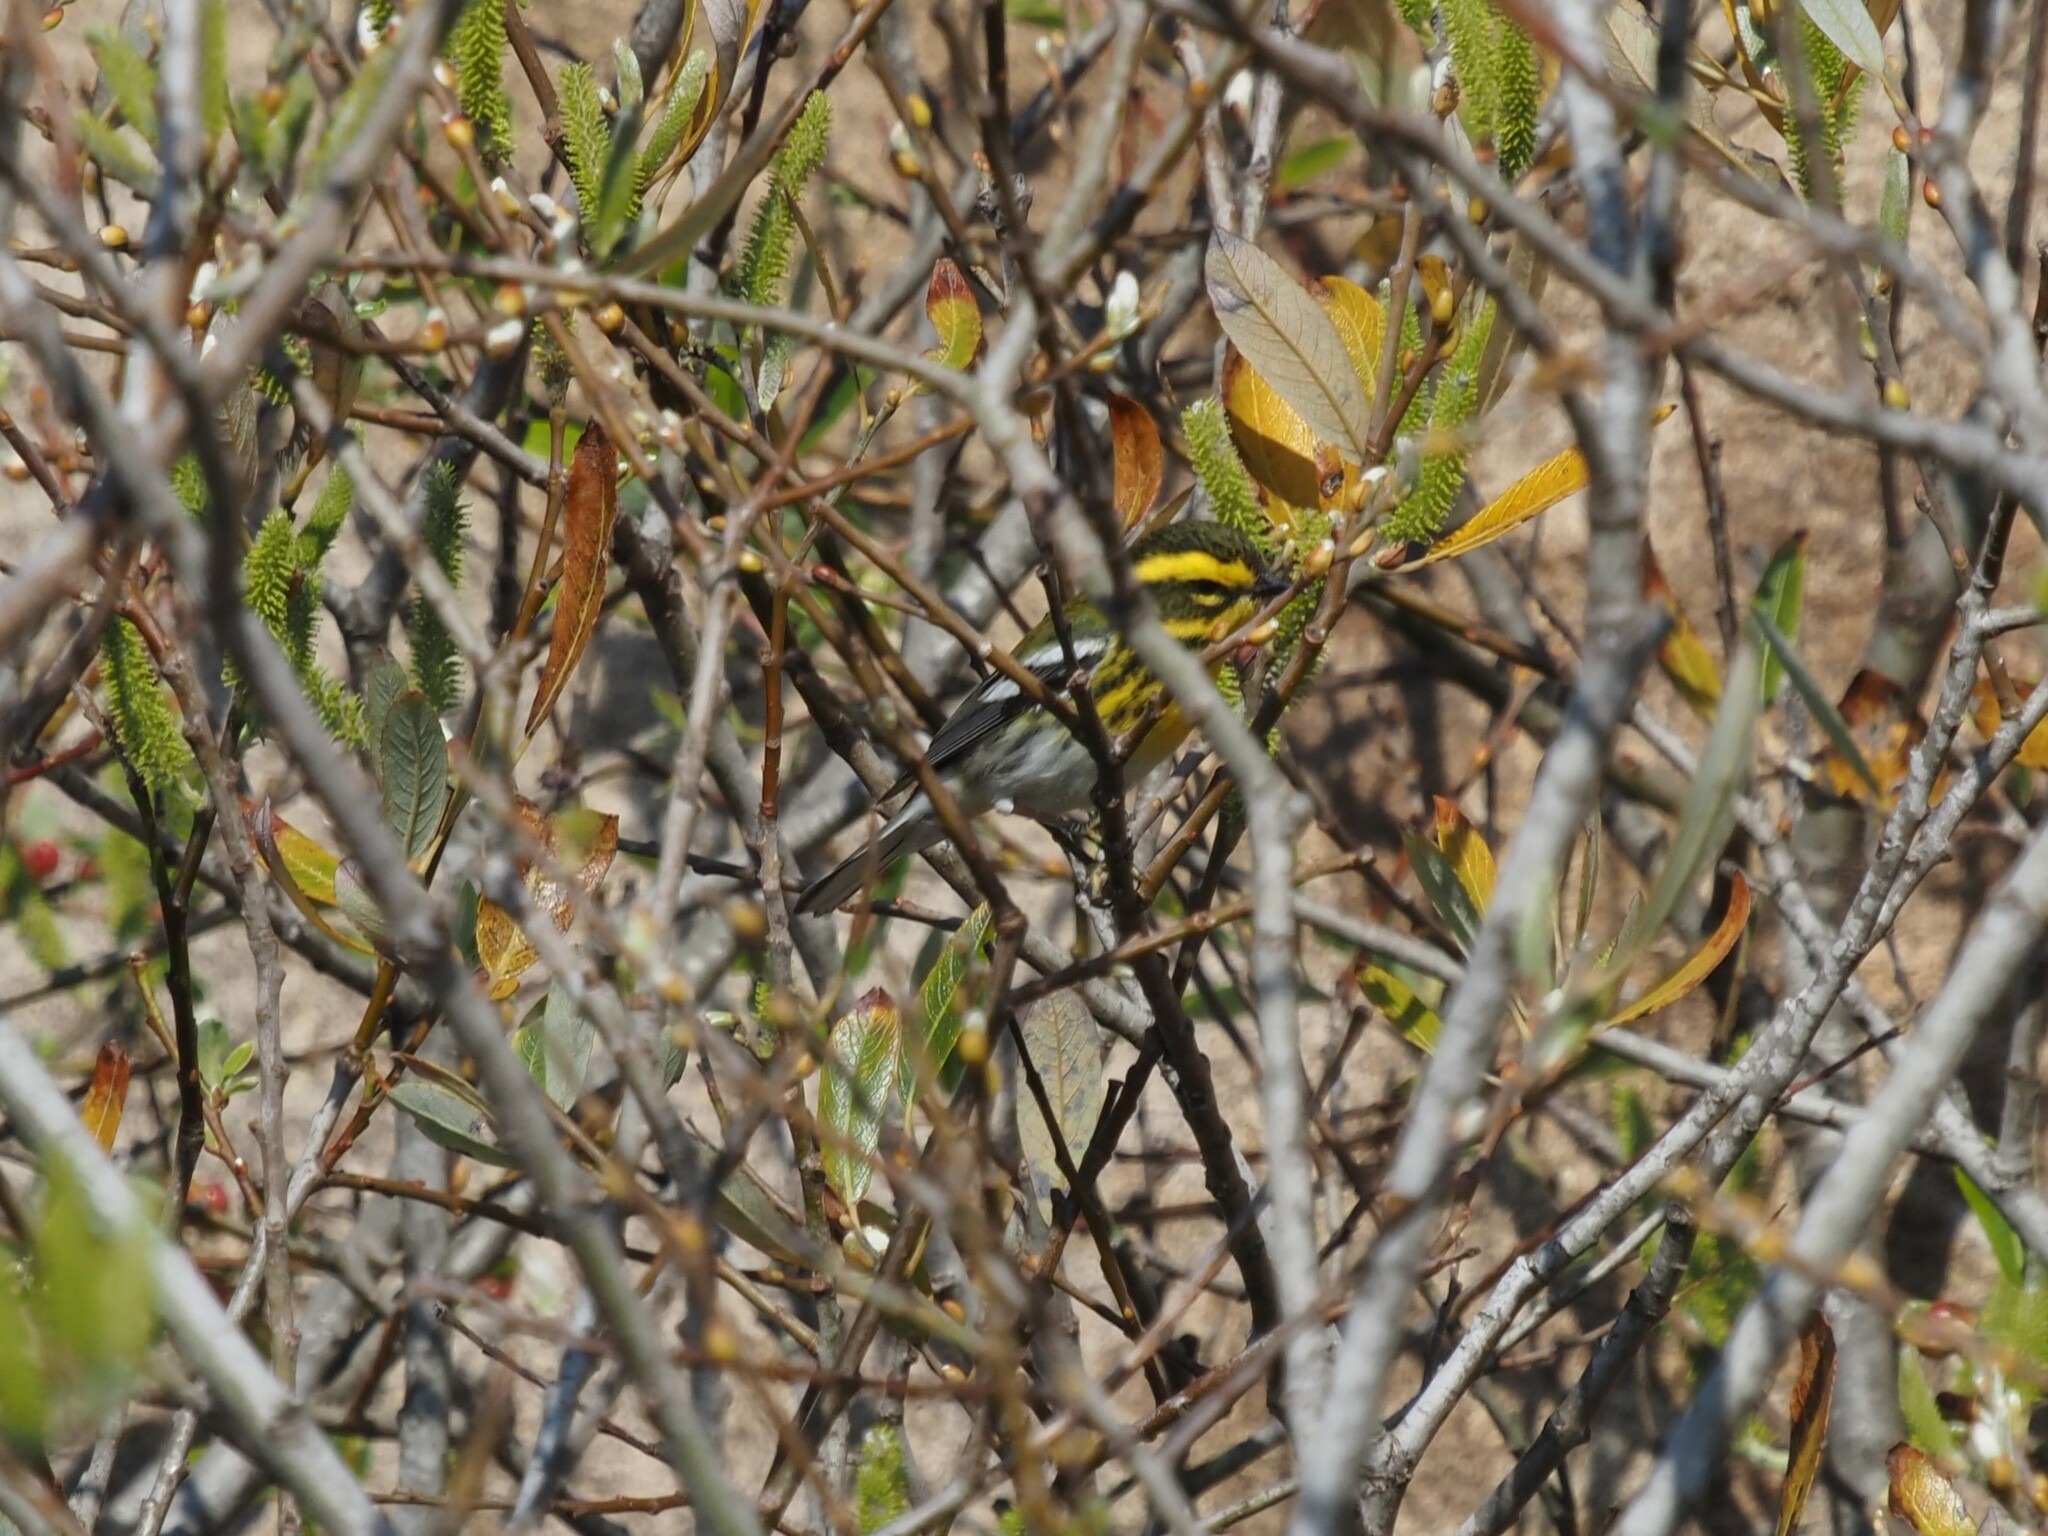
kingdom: Animalia
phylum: Chordata
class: Aves
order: Passeriformes
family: Parulidae
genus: Setophaga
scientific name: Setophaga townsendi
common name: Townsend's warbler
